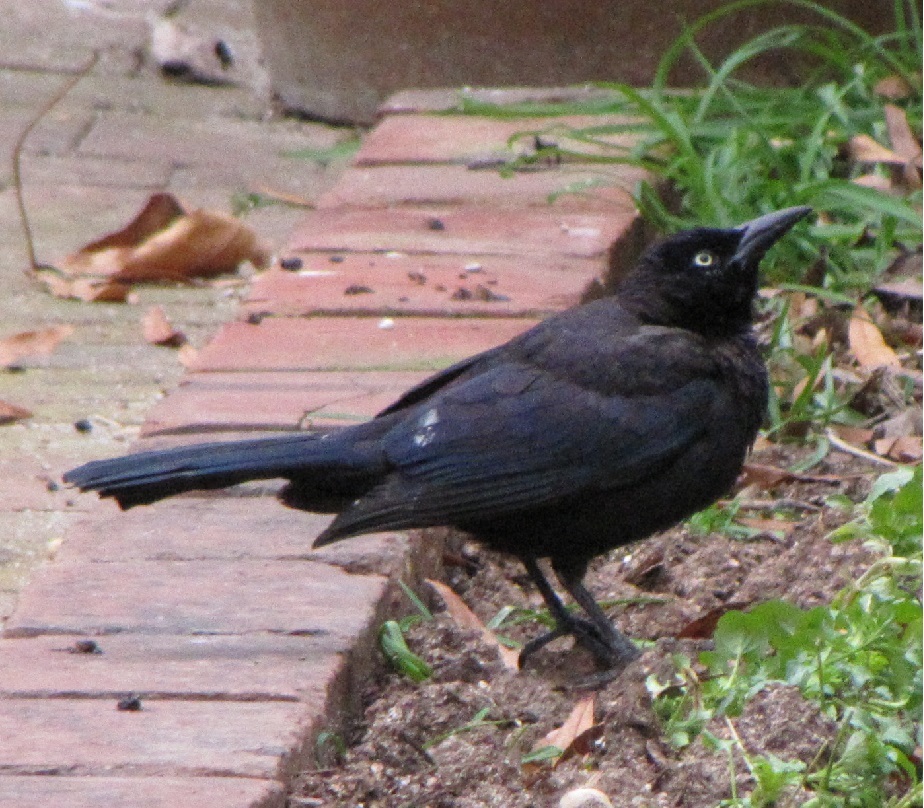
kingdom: Animalia
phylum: Chordata
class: Aves
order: Passeriformes
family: Icteridae
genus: Quiscalus
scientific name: Quiscalus quiscula
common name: Common grackle
